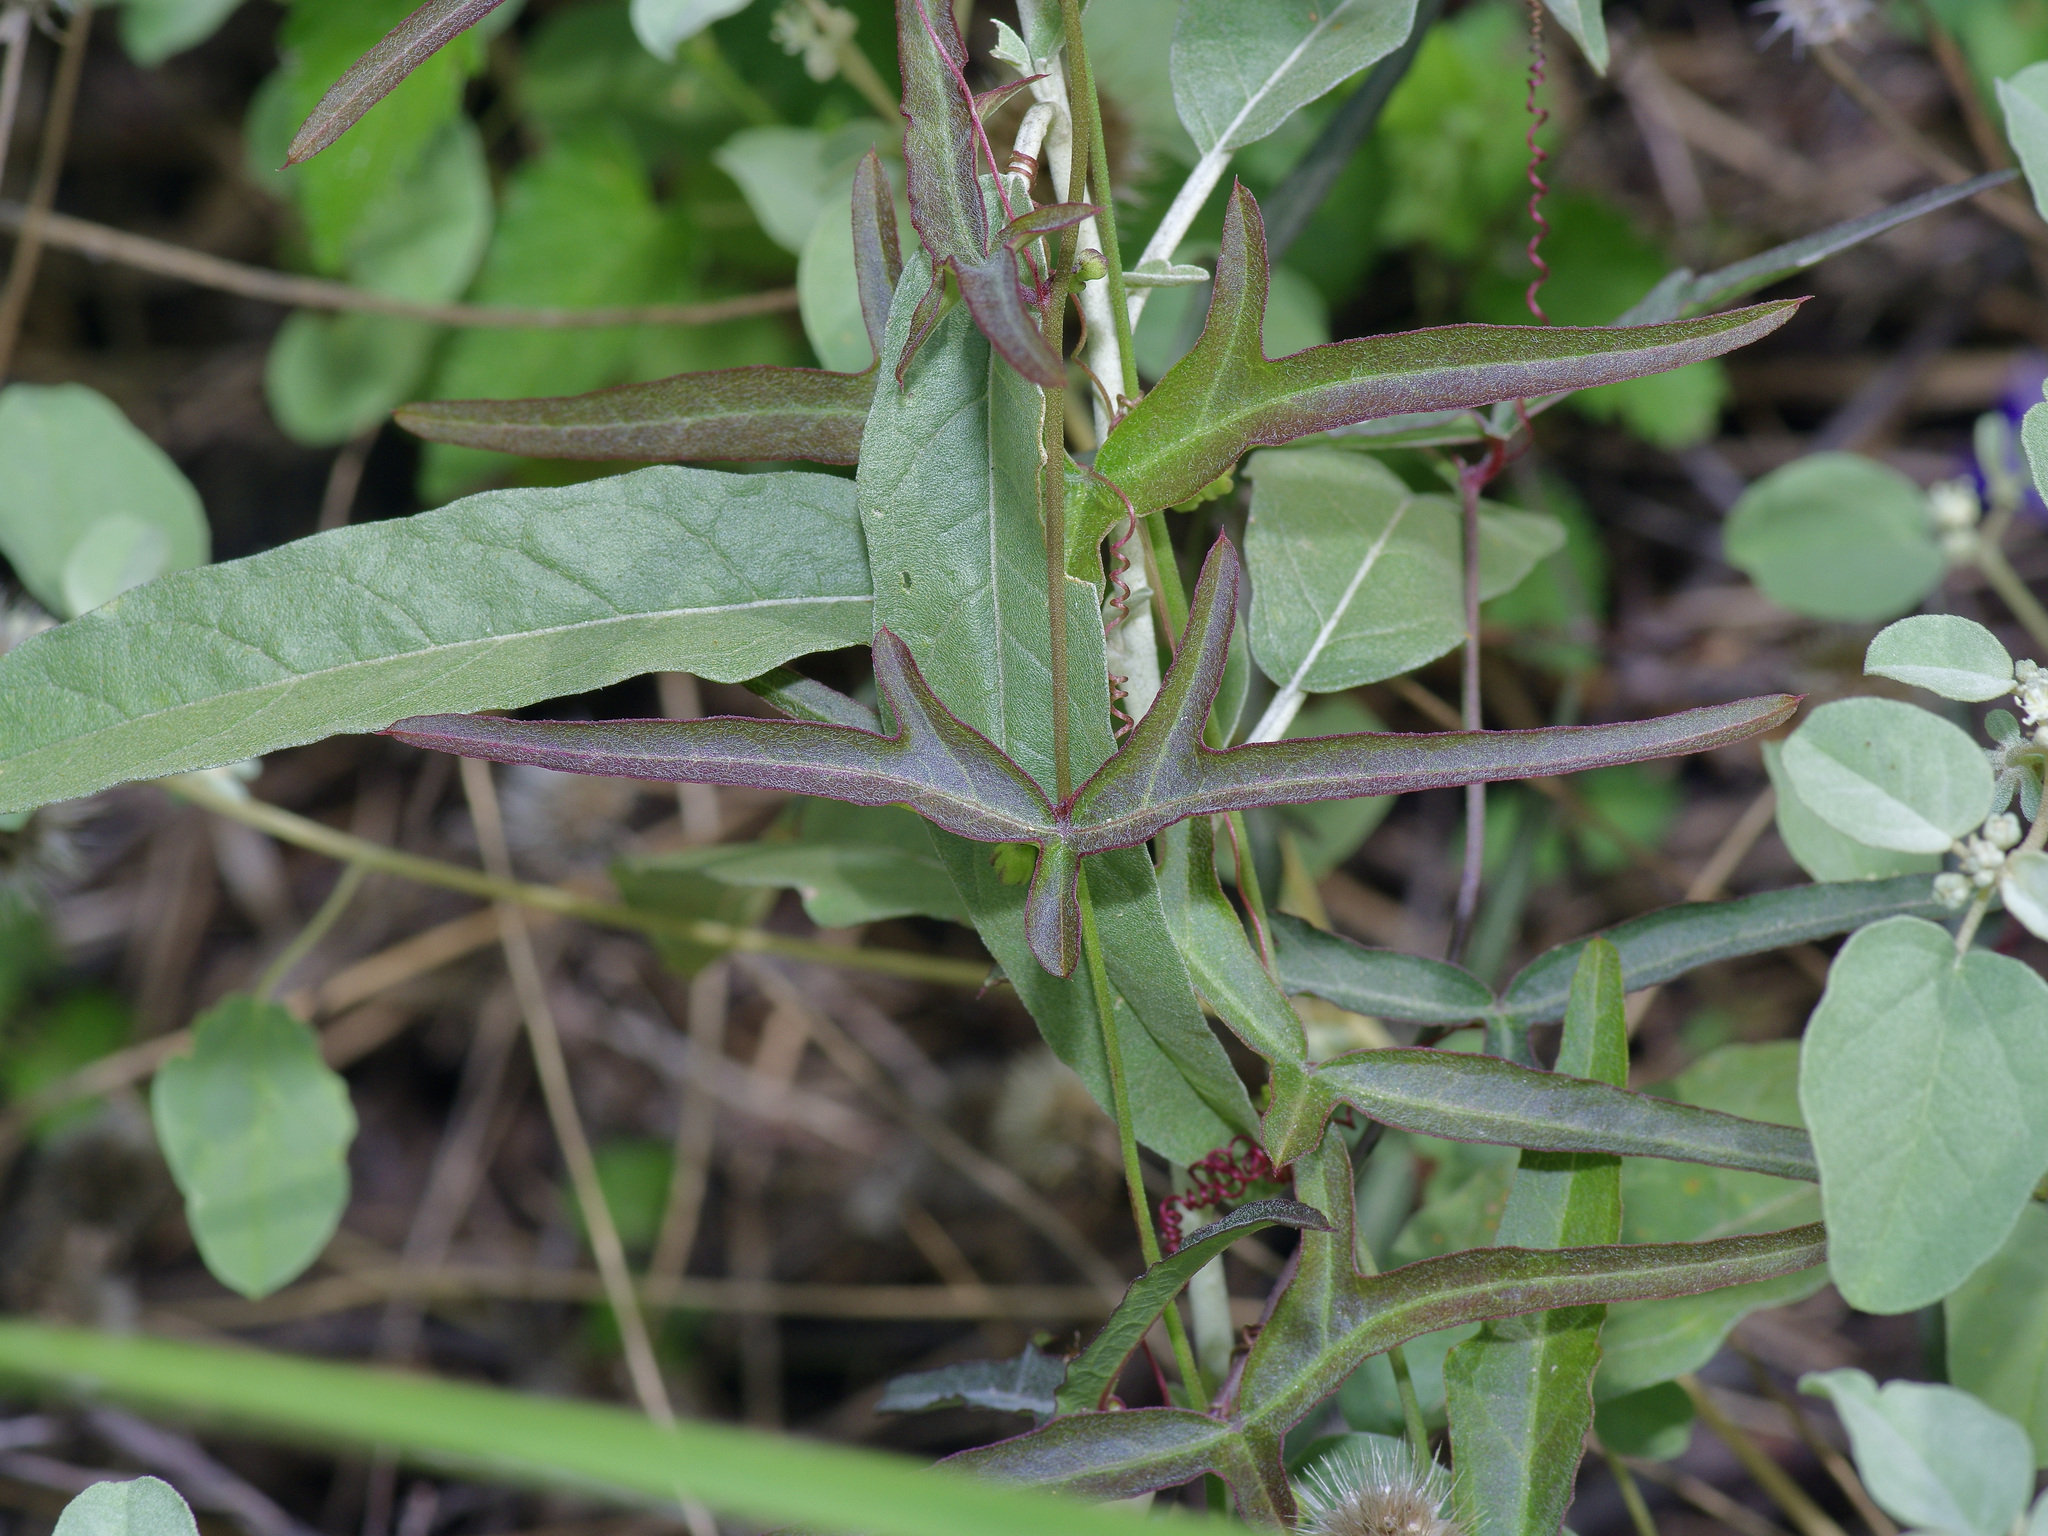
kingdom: Plantae
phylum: Tracheophyta
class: Magnoliopsida
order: Malpighiales
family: Passifloraceae
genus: Passiflora
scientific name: Passiflora tenuiloba
